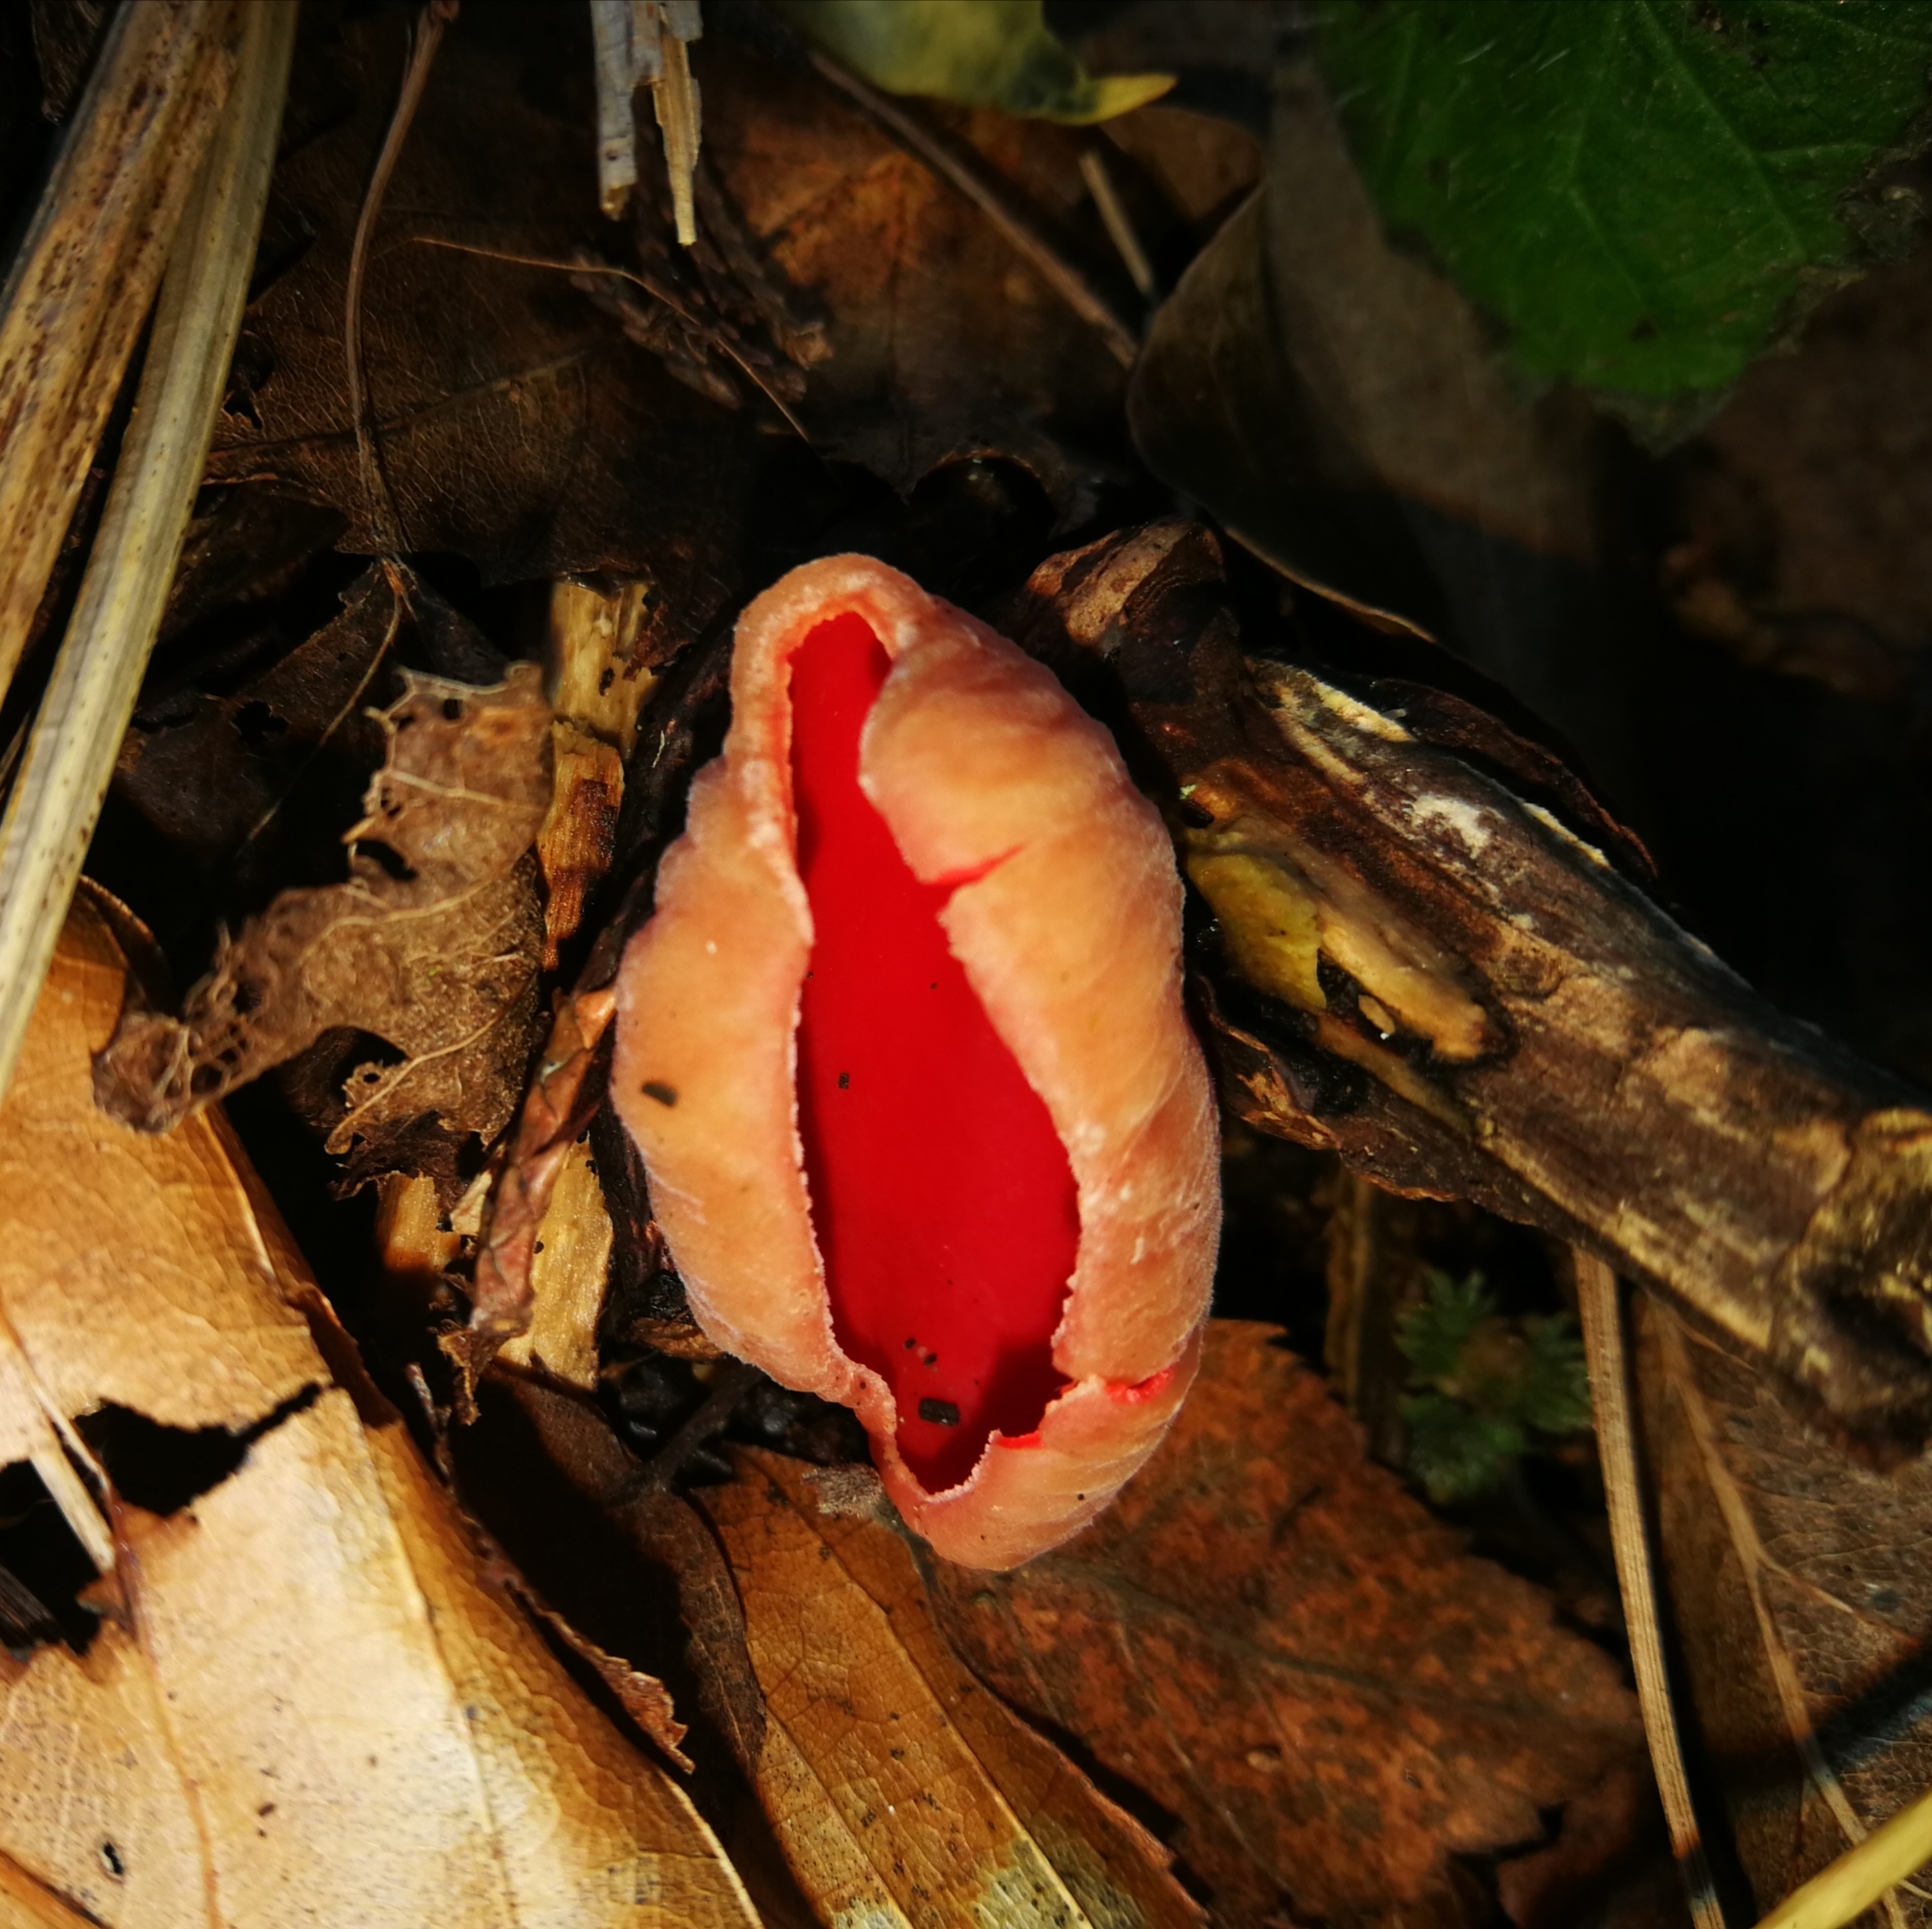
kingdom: Fungi
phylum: Ascomycota
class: Pezizomycetes
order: Pezizales
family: Sarcoscyphaceae
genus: Sarcoscypha
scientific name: Sarcoscypha
